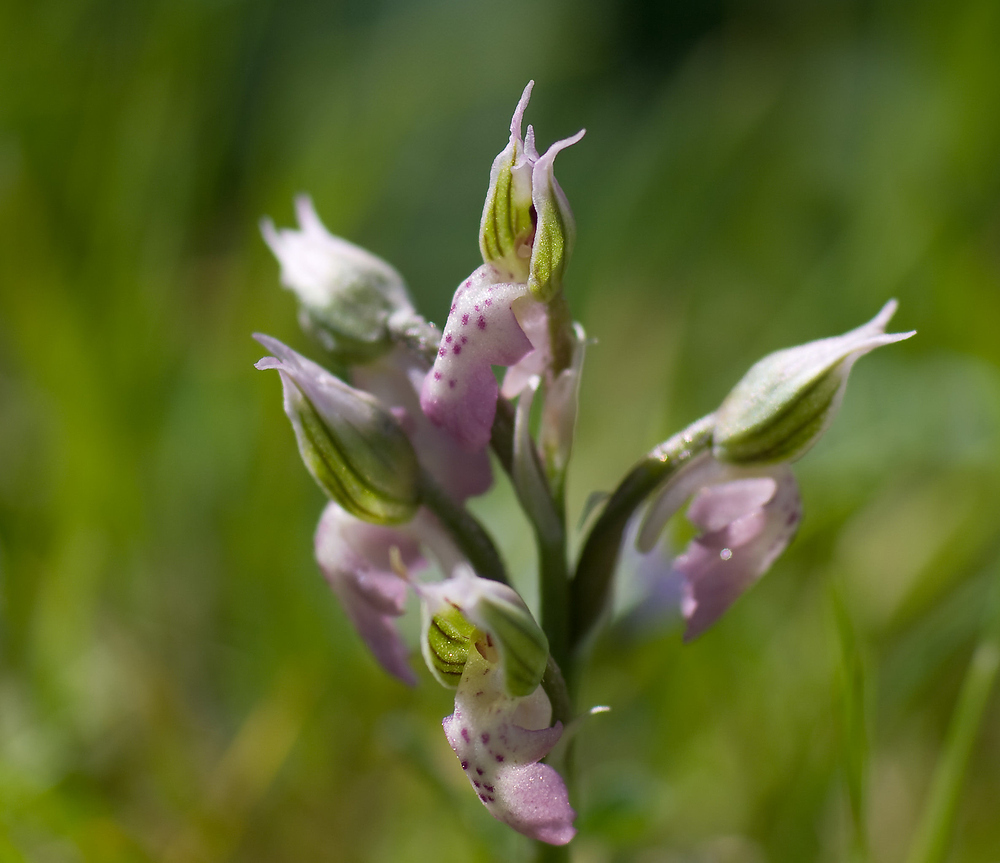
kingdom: Plantae
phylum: Tracheophyta
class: Liliopsida
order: Asparagales
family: Orchidaceae
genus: Neotinea
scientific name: Neotinea lactea
